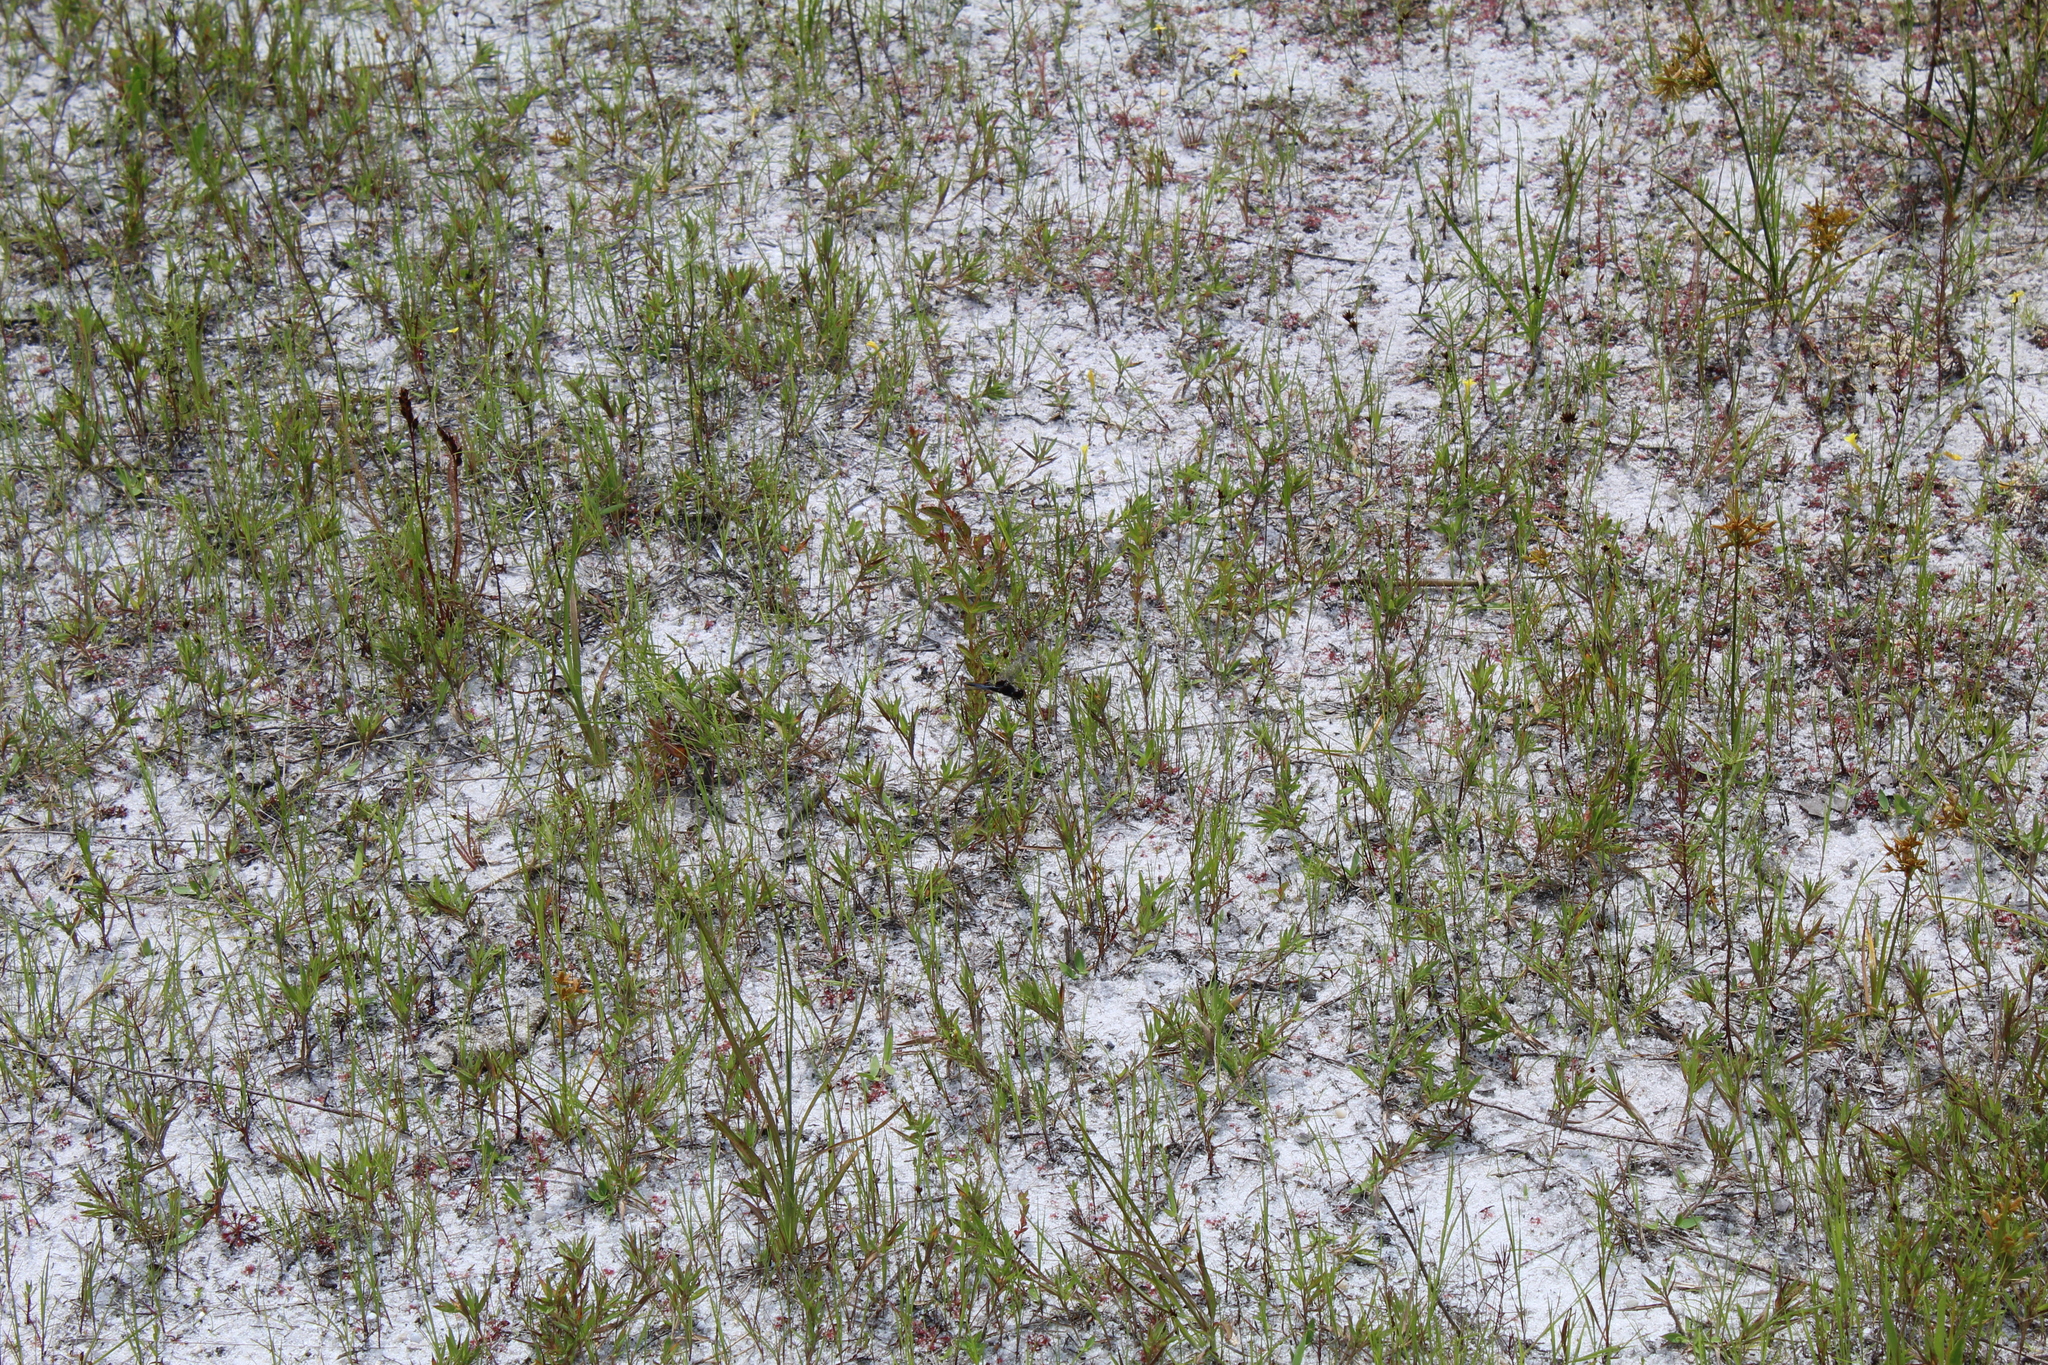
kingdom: Animalia
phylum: Arthropoda
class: Insecta
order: Odonata
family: Libellulidae
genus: Celithemis
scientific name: Celithemis martha
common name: Martha's pennant
